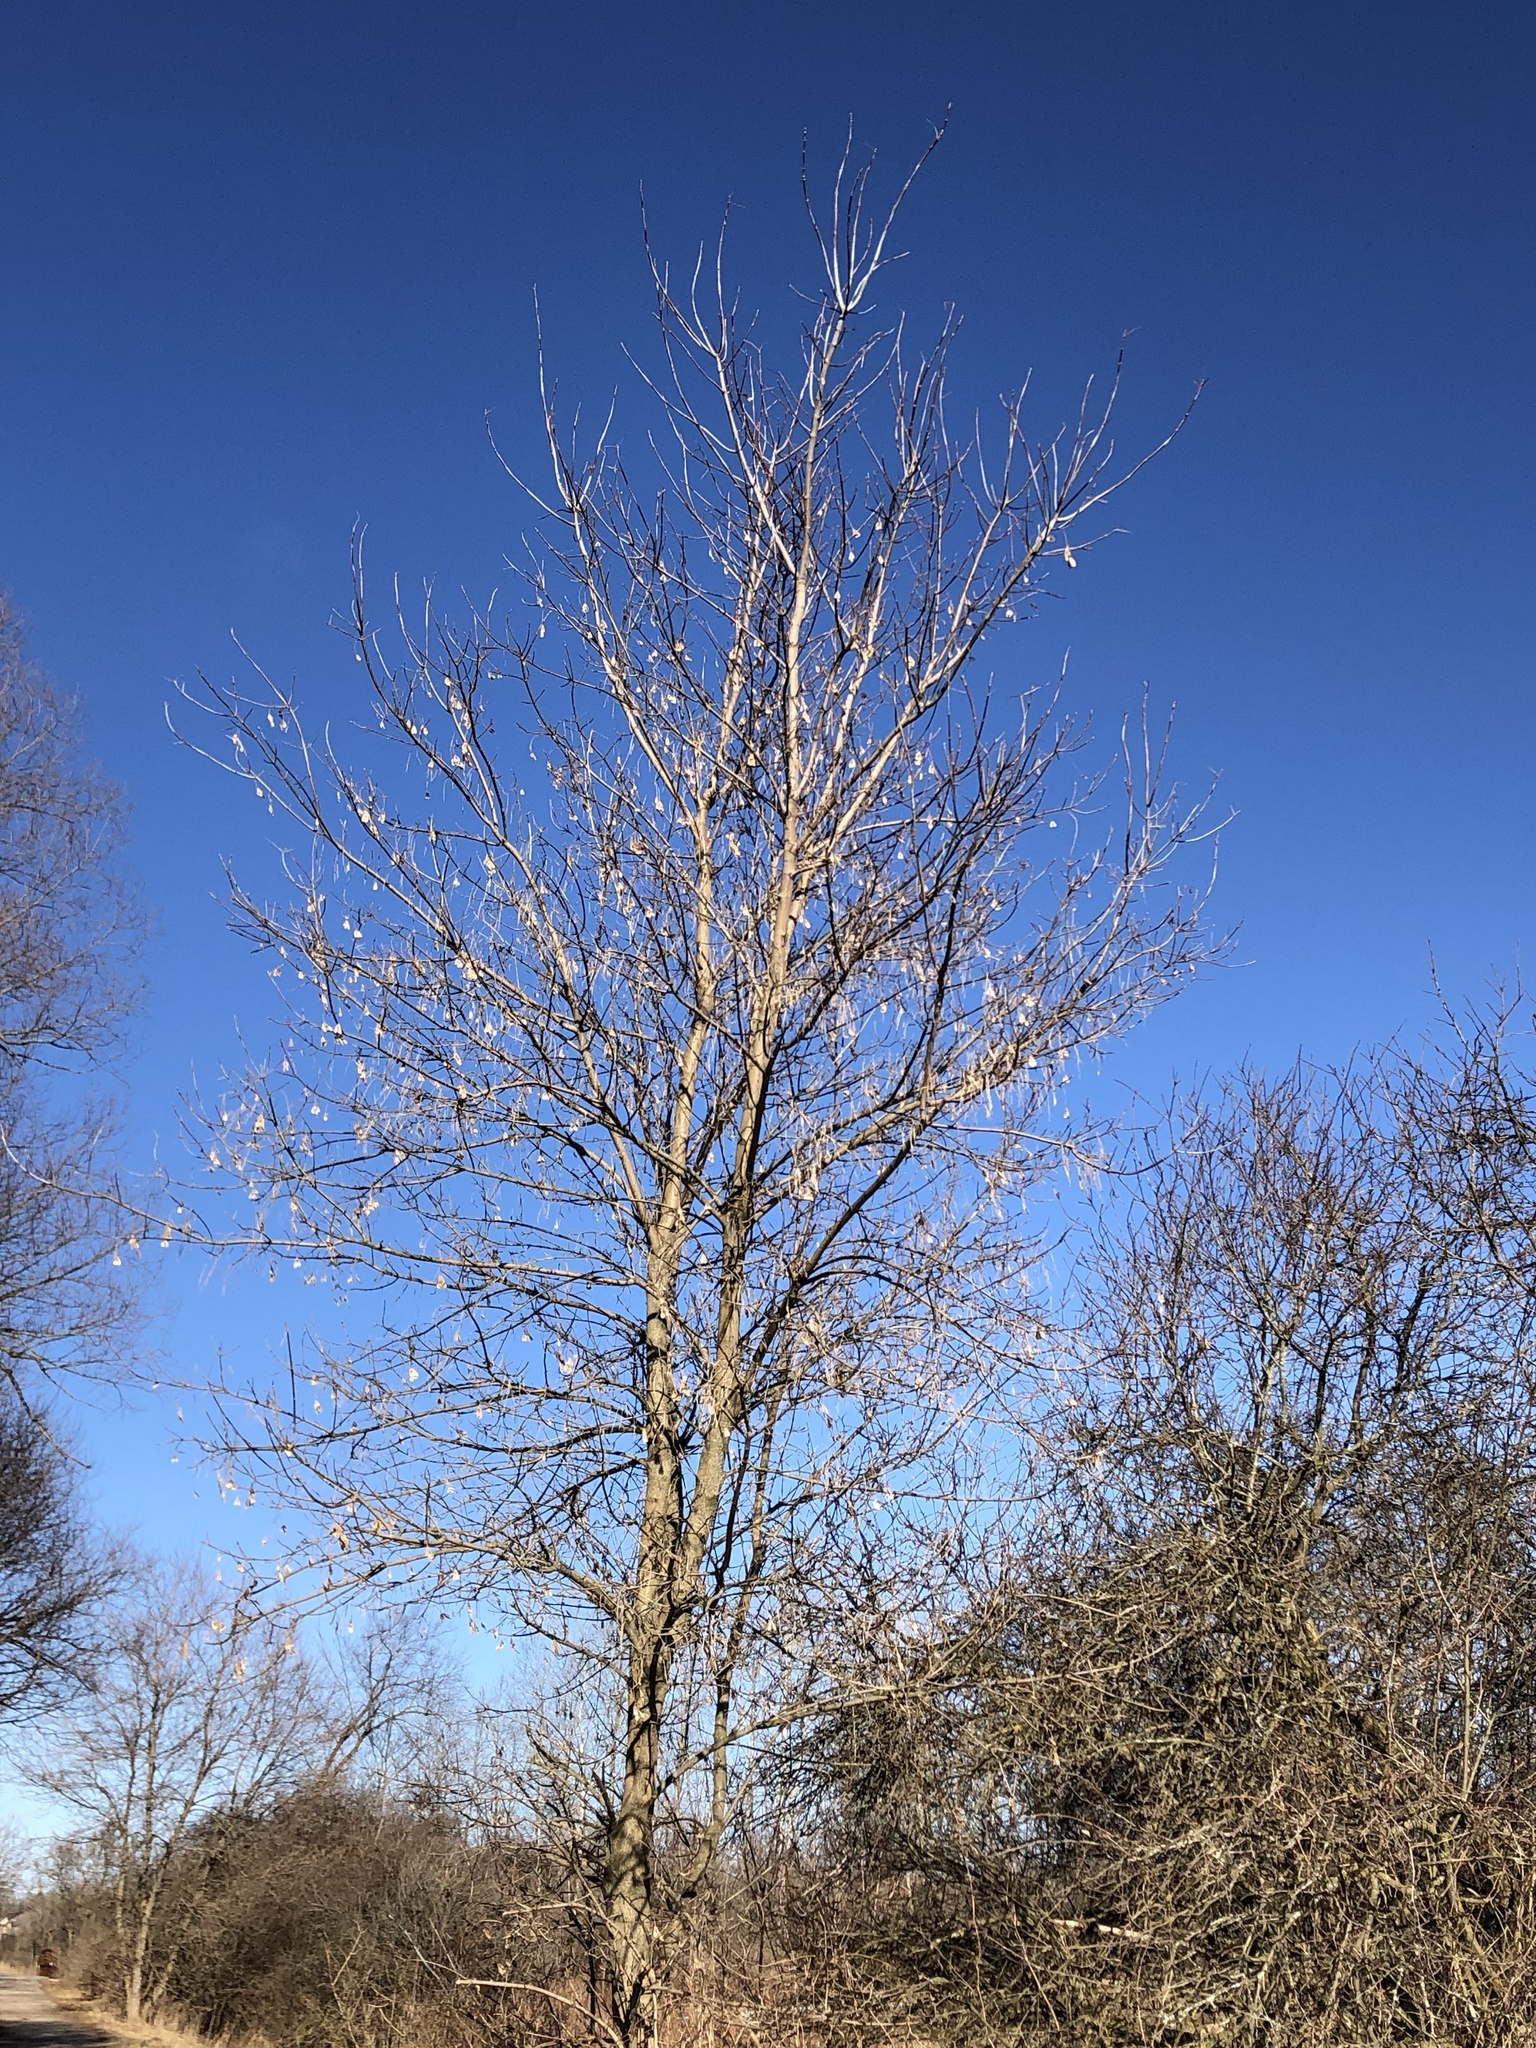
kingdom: Plantae
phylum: Tracheophyta
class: Magnoliopsida
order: Sapindales
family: Sapindaceae
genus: Acer
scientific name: Acer negundo
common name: Ashleaf maple
